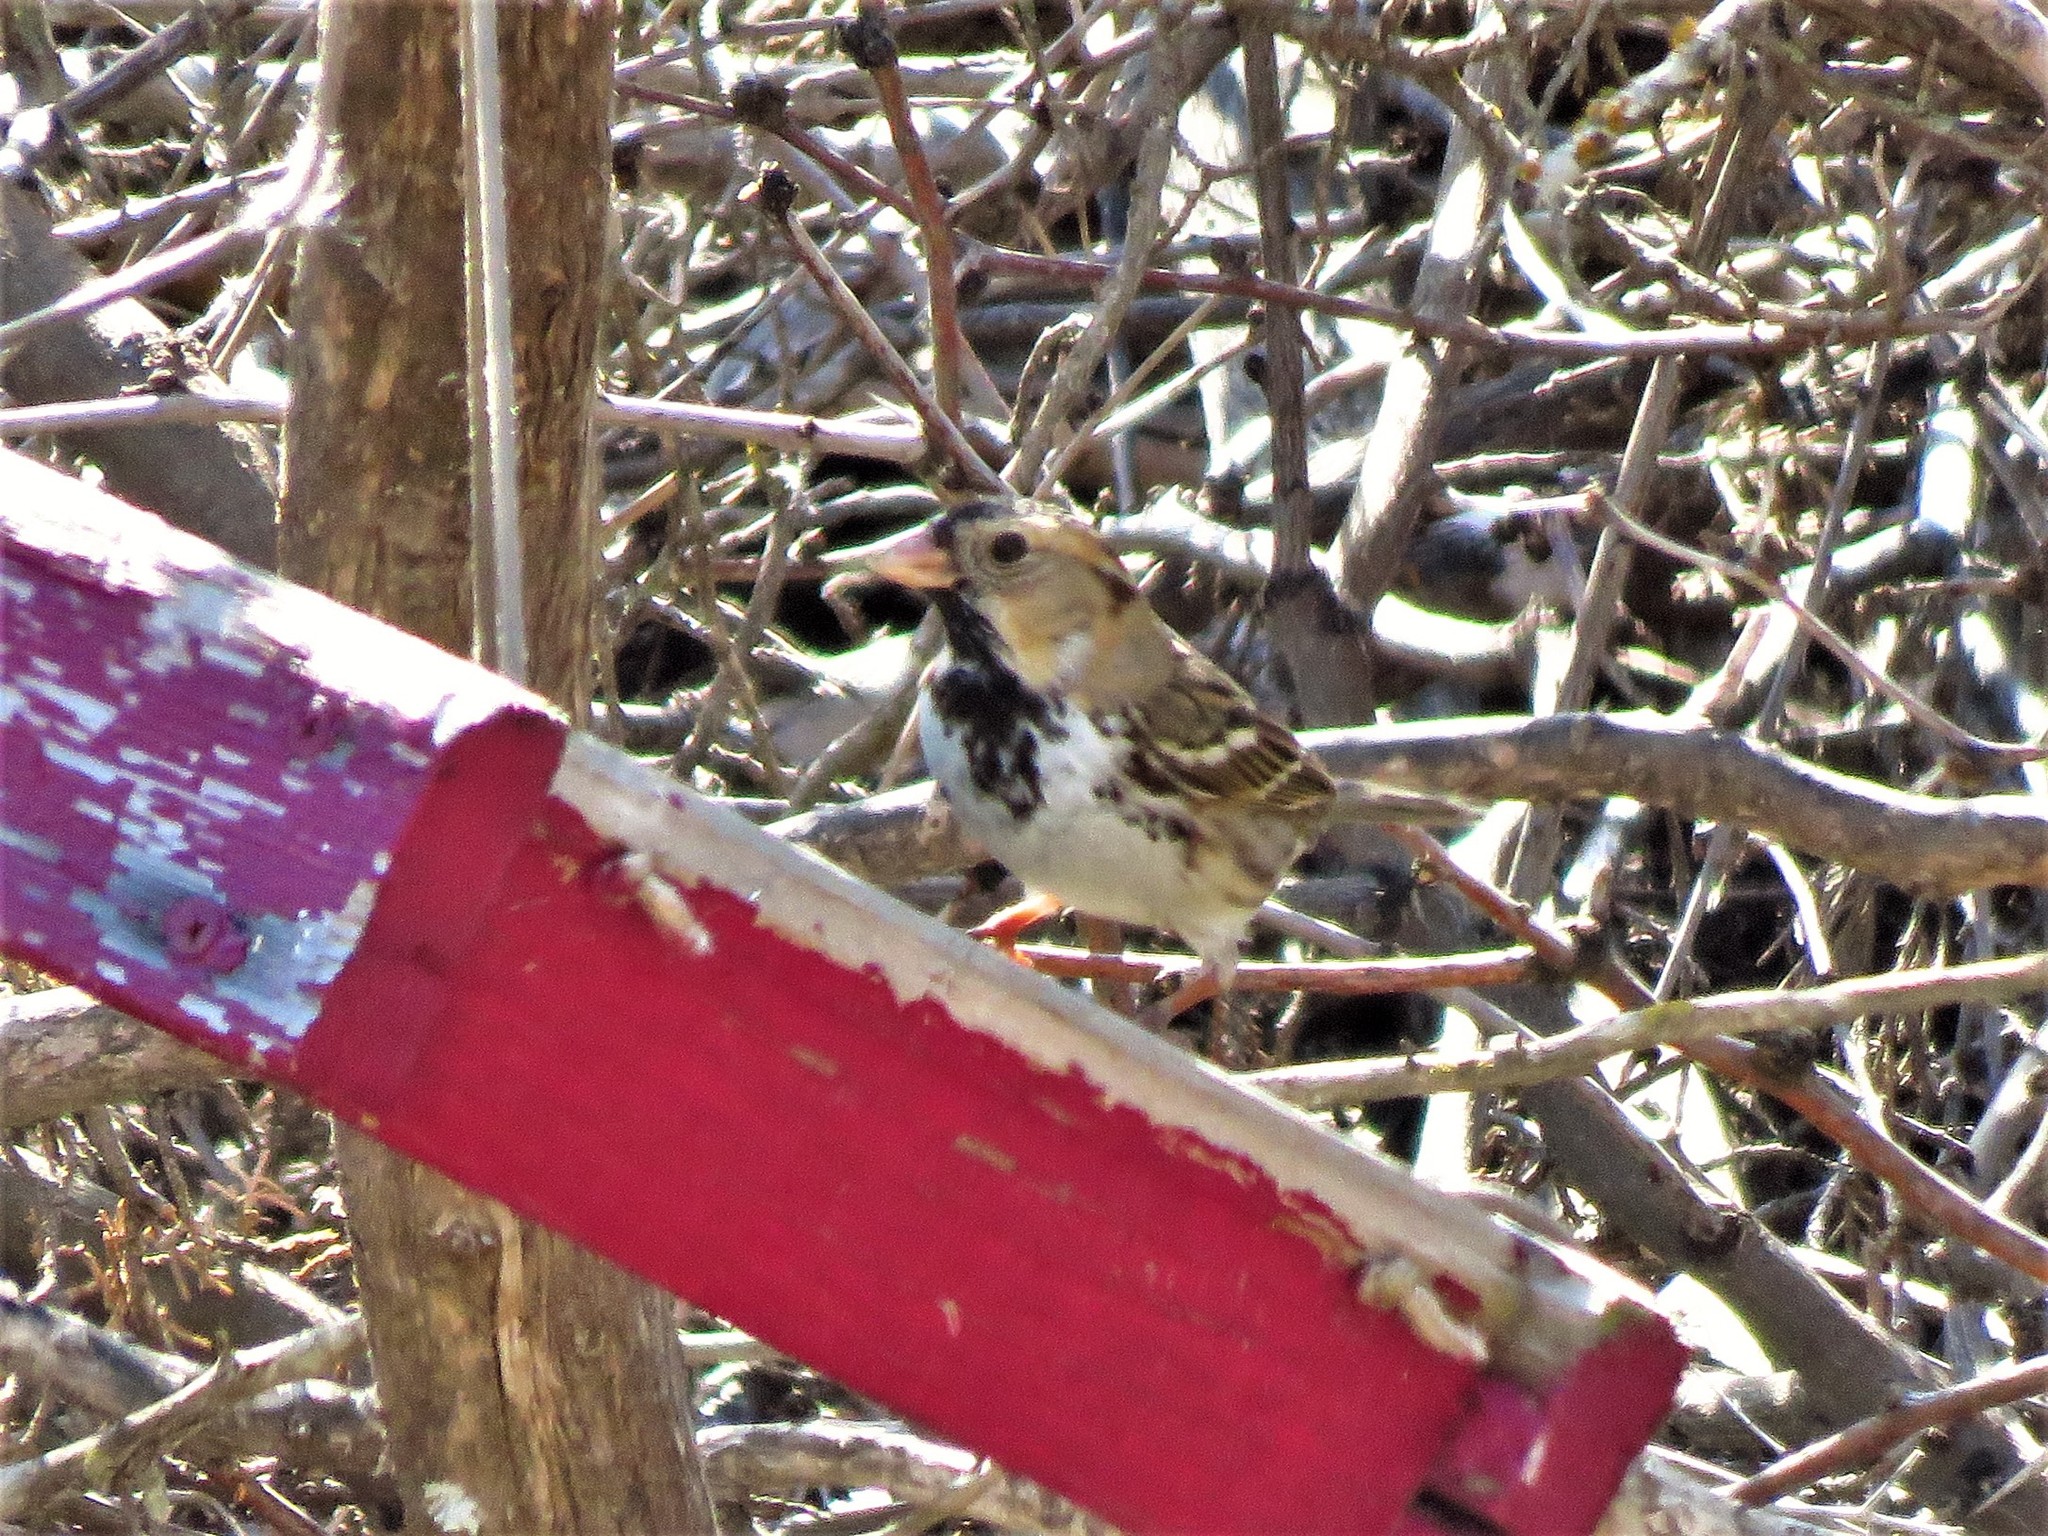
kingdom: Animalia
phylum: Chordata
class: Aves
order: Passeriformes
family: Passerellidae
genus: Zonotrichia
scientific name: Zonotrichia querula
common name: Harris's sparrow
